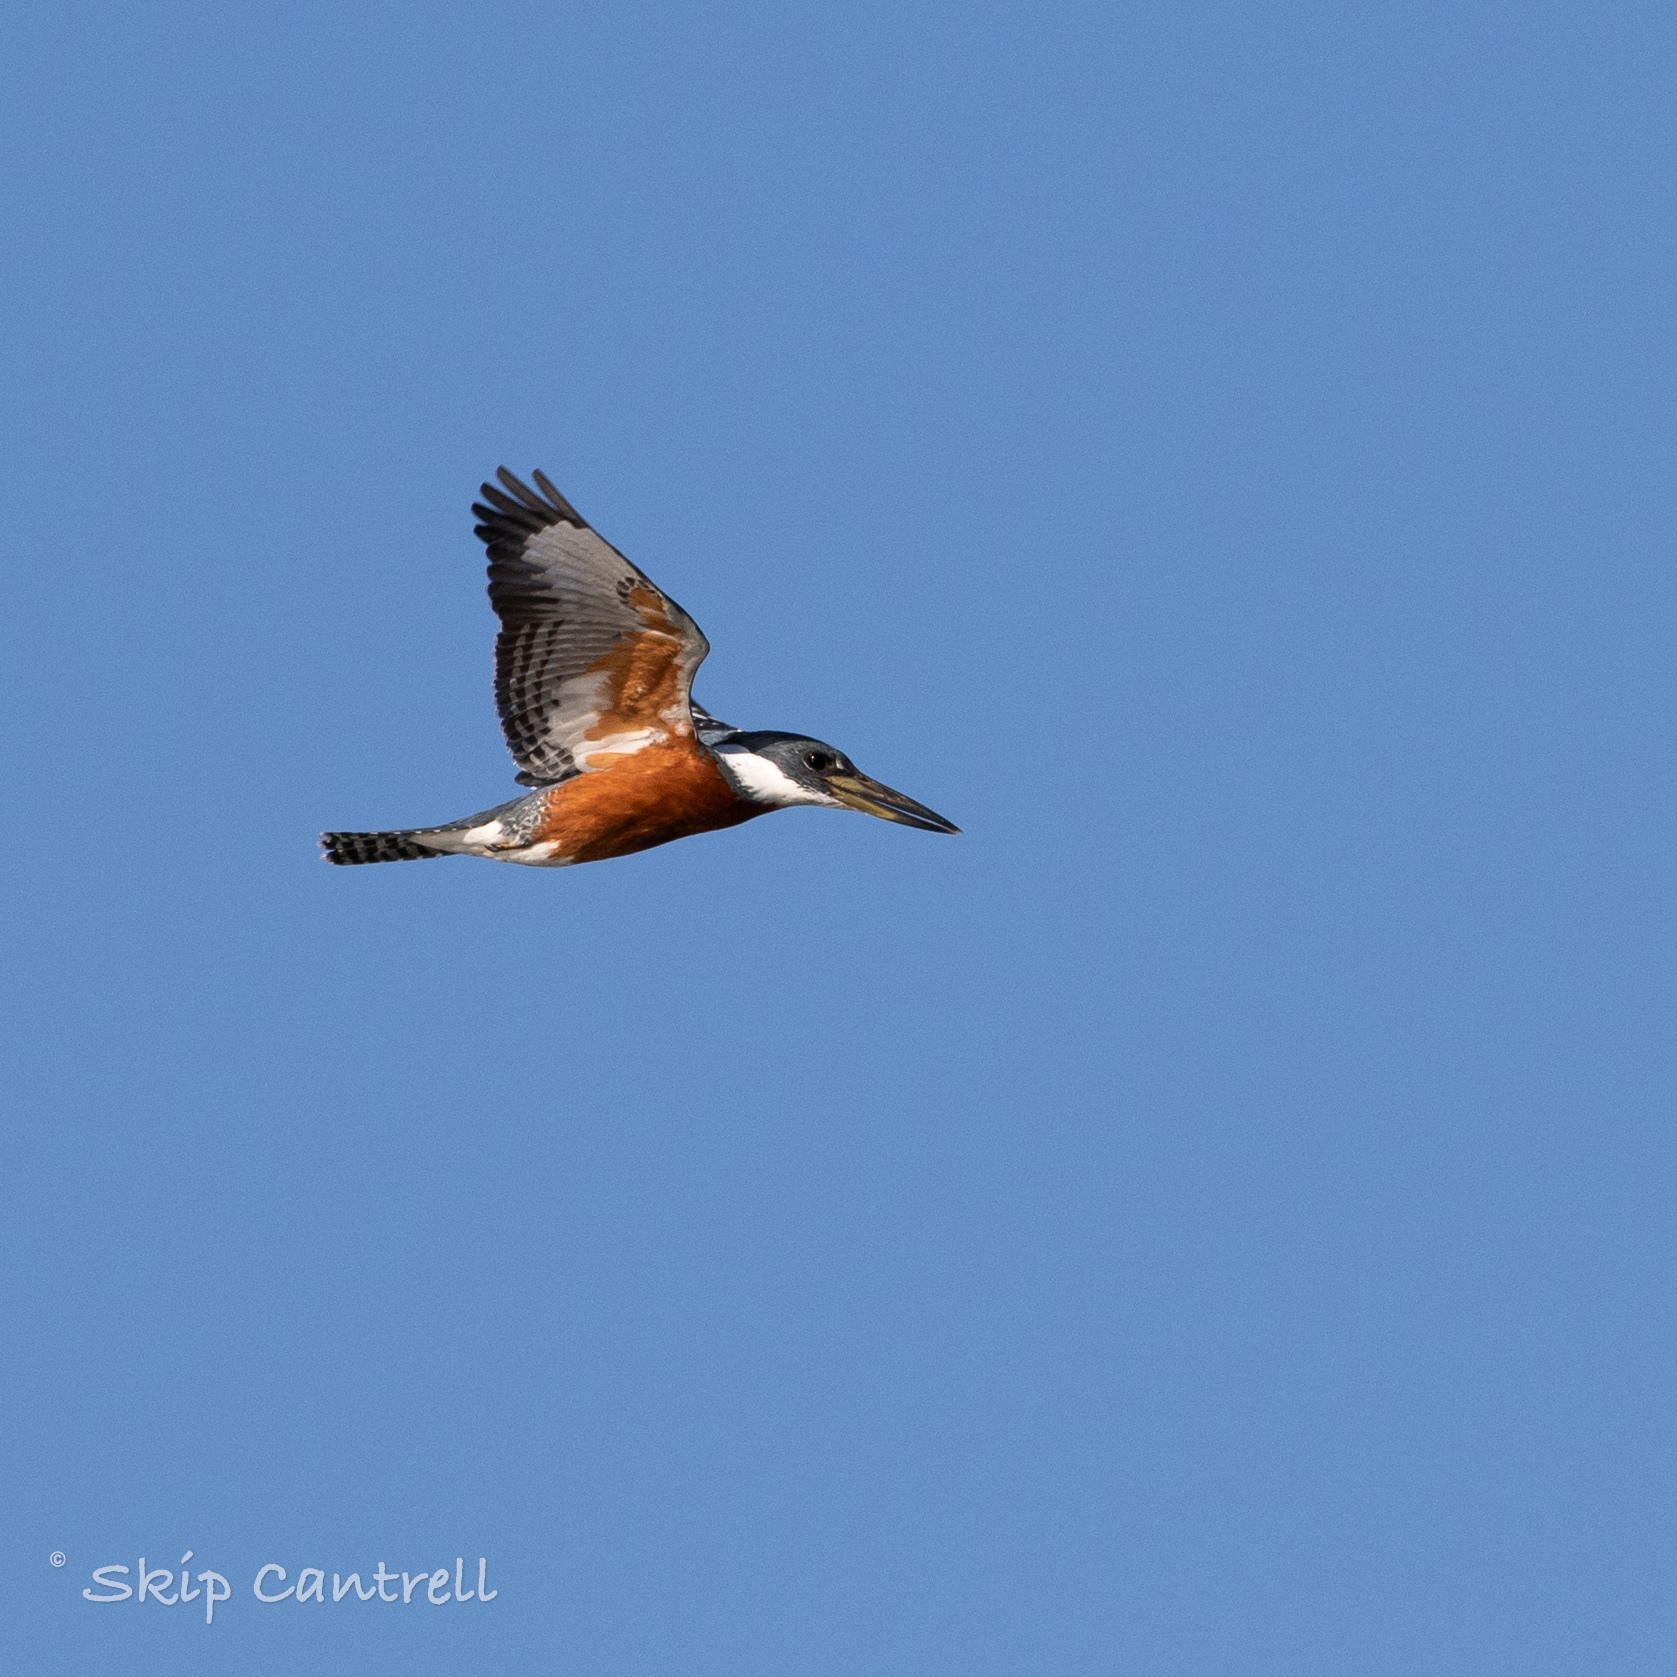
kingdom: Animalia
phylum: Chordata
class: Aves
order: Coraciiformes
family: Alcedinidae
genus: Megaceryle
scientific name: Megaceryle torquata
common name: Ringed kingfisher
